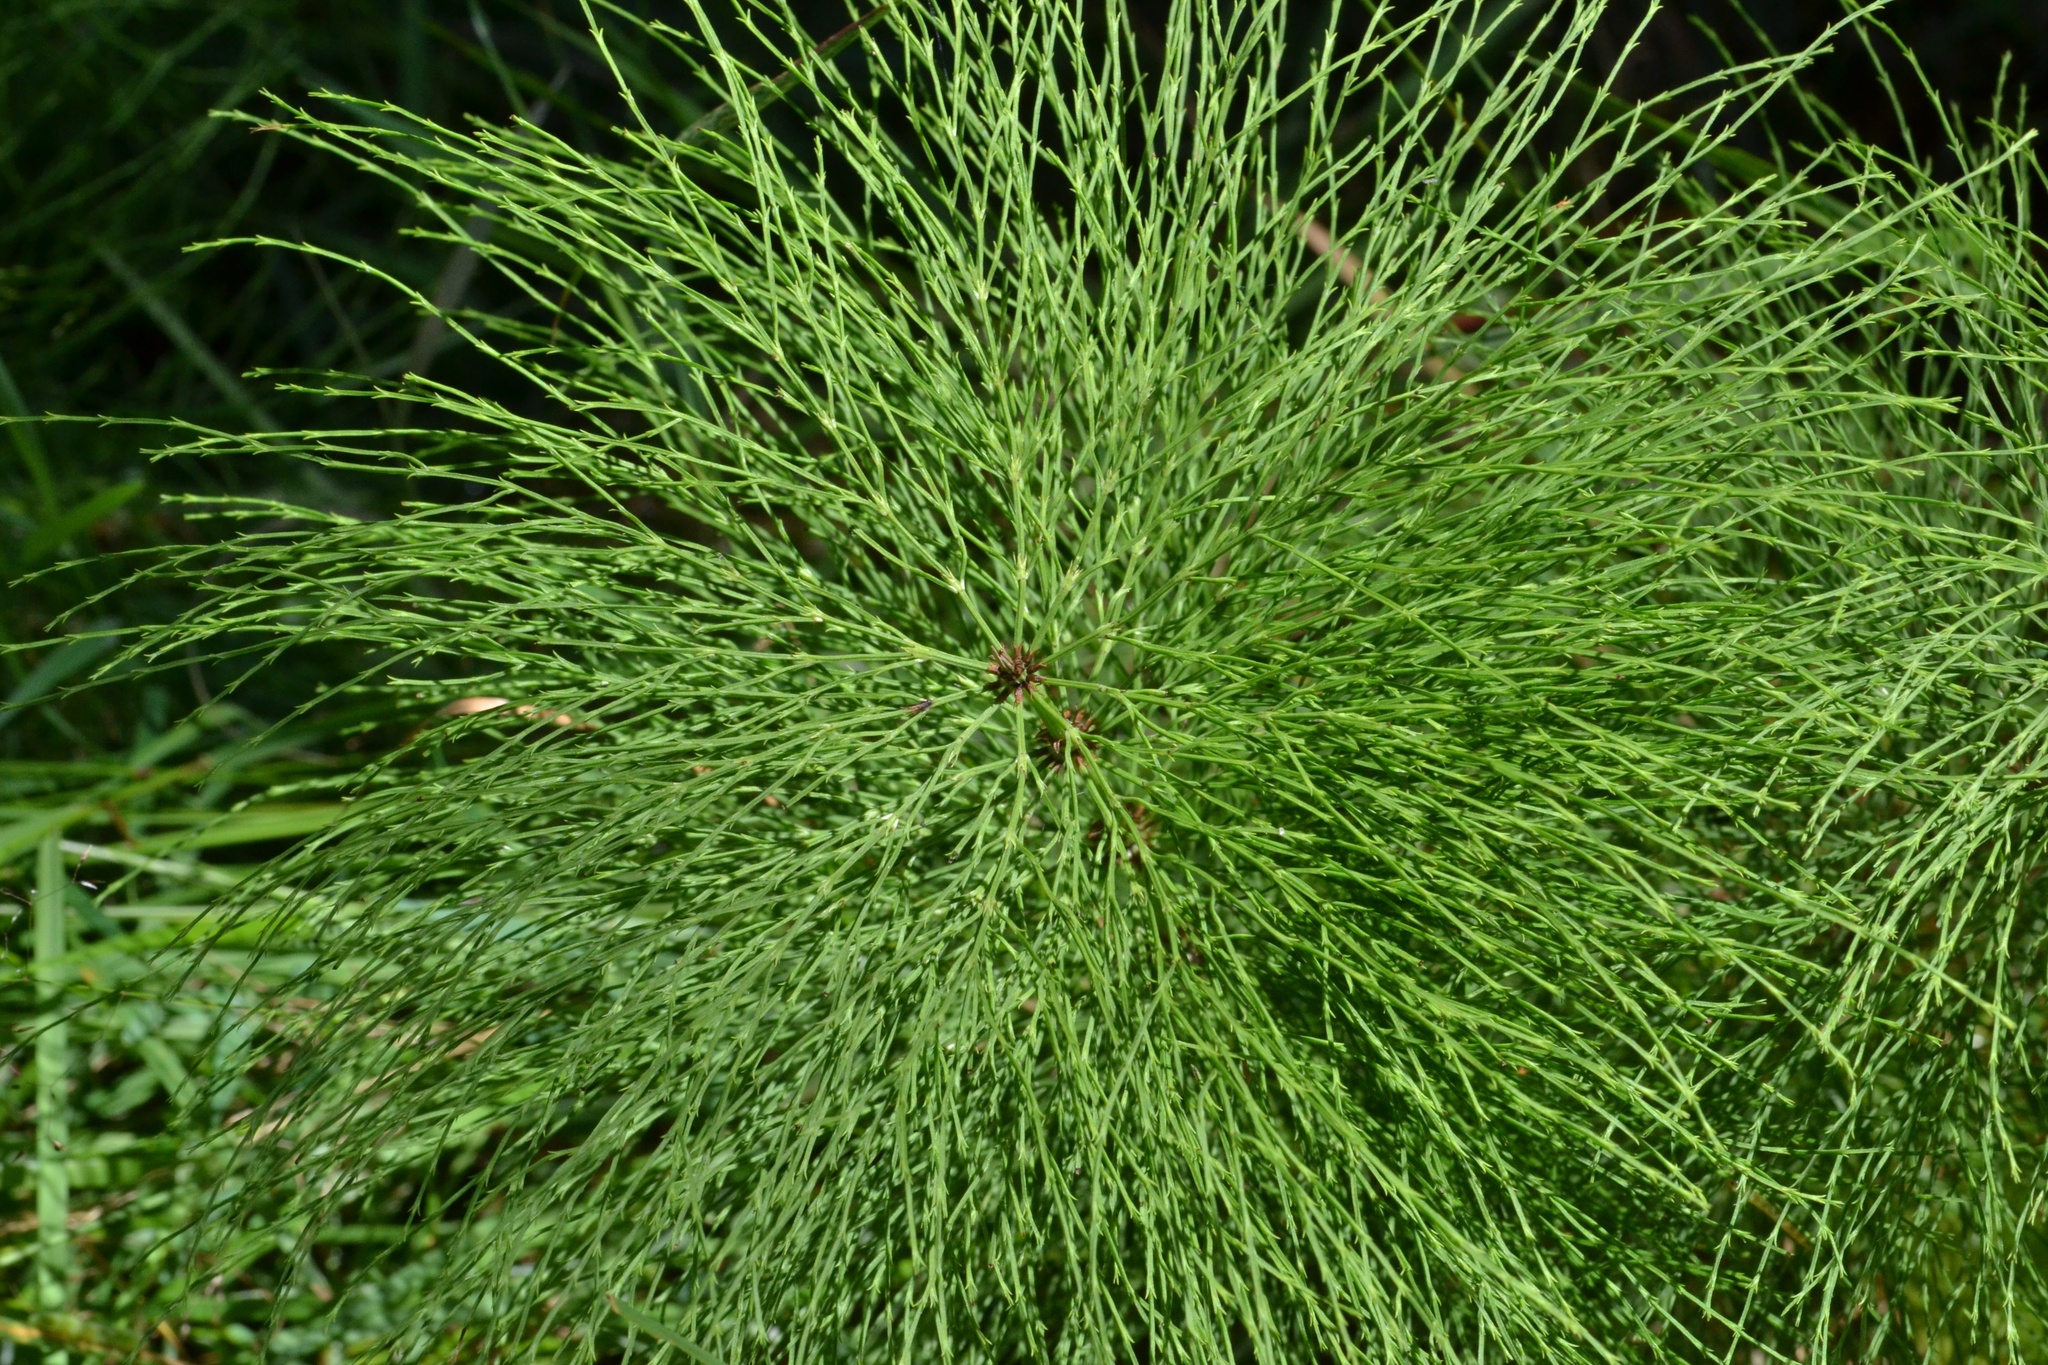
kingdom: Plantae
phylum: Tracheophyta
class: Polypodiopsida
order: Equisetales
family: Equisetaceae
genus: Equisetum
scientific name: Equisetum sylvaticum
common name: Wood horsetail
